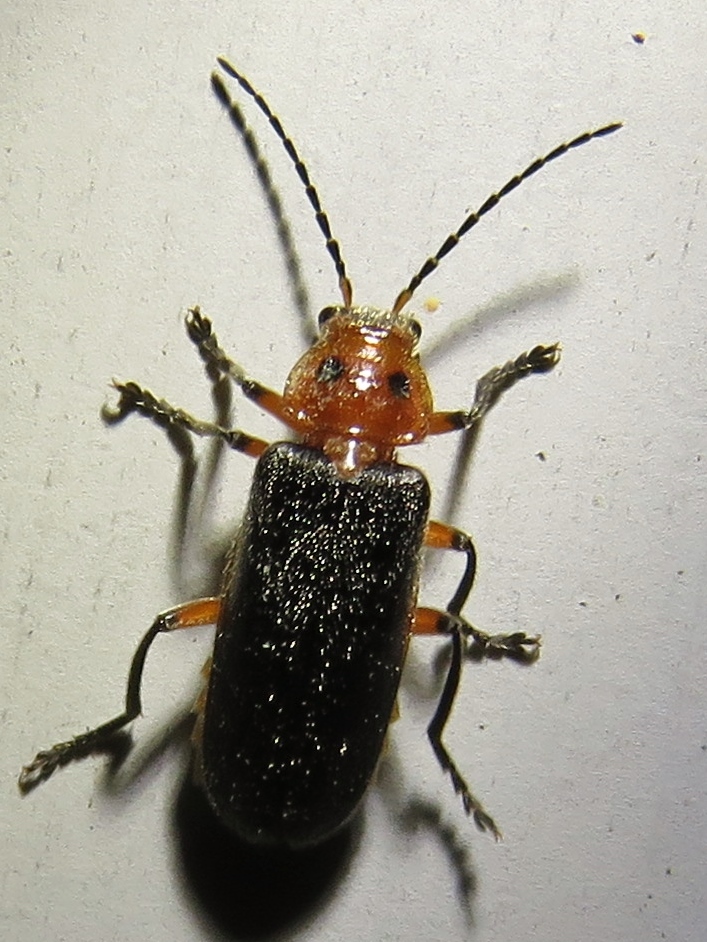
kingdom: Animalia
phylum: Arthropoda
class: Insecta
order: Coleoptera
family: Cantharidae
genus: Atalantycha
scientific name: Atalantycha bilineata
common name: Two-lined leatherwing
